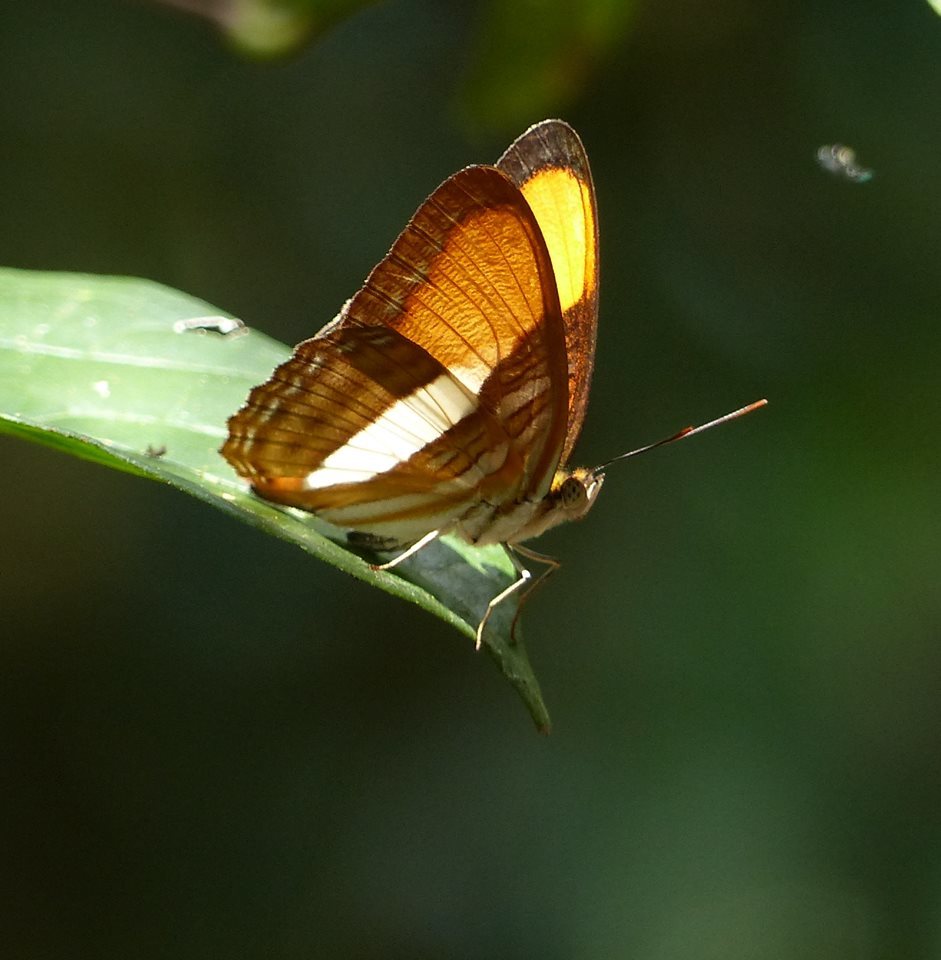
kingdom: Animalia
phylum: Arthropoda
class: Insecta
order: Lepidoptera
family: Nymphalidae
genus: Limenitis
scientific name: Limenitis cytherea
